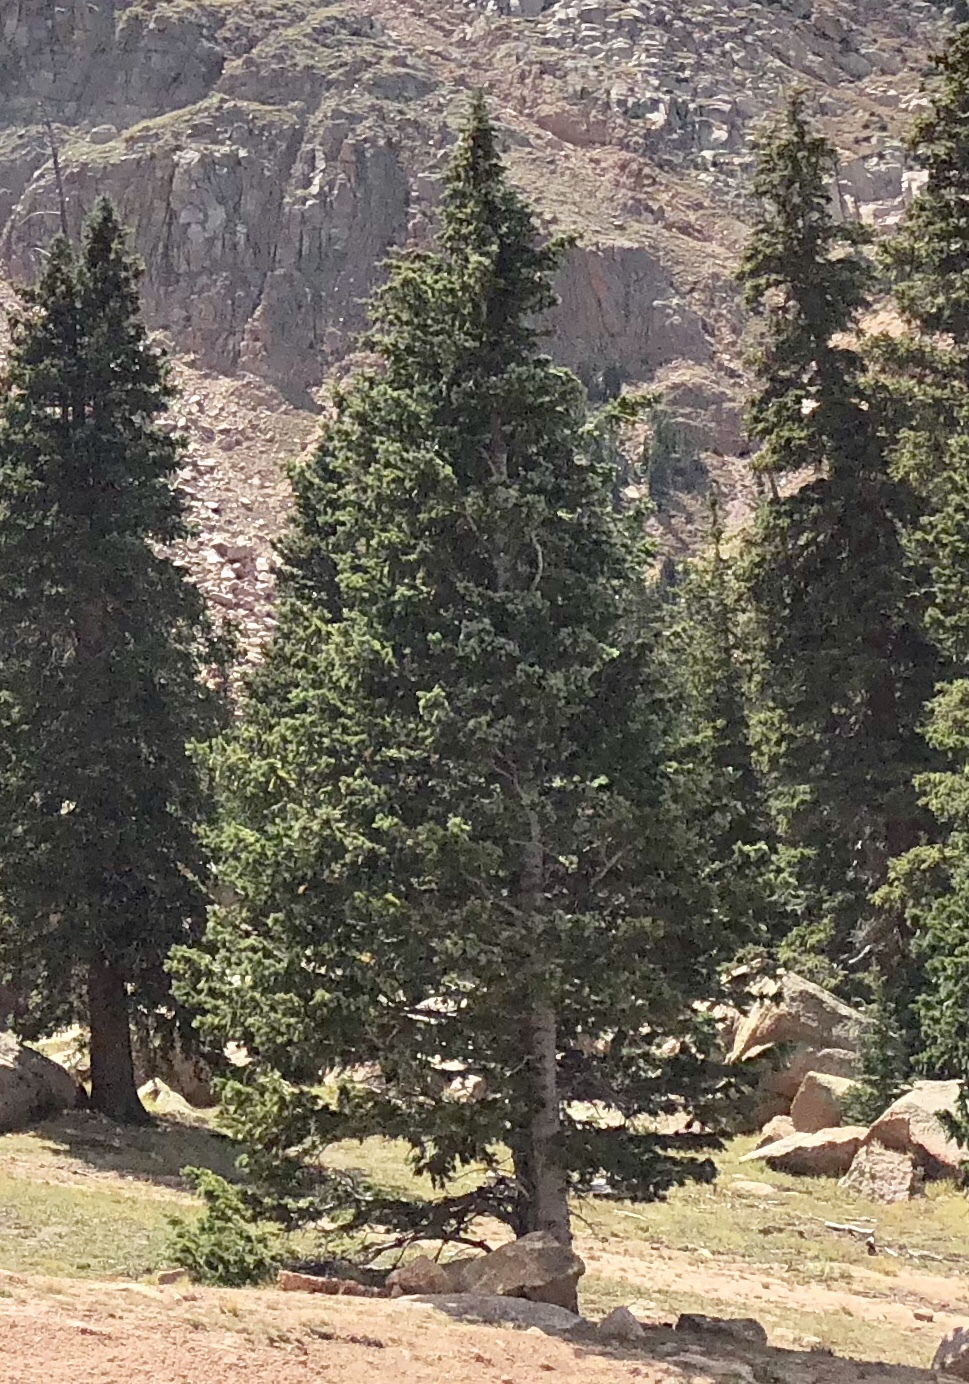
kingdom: Plantae
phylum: Tracheophyta
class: Pinopsida
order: Pinales
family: Pinaceae
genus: Picea
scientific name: Picea pungens
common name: Colorado spruce
